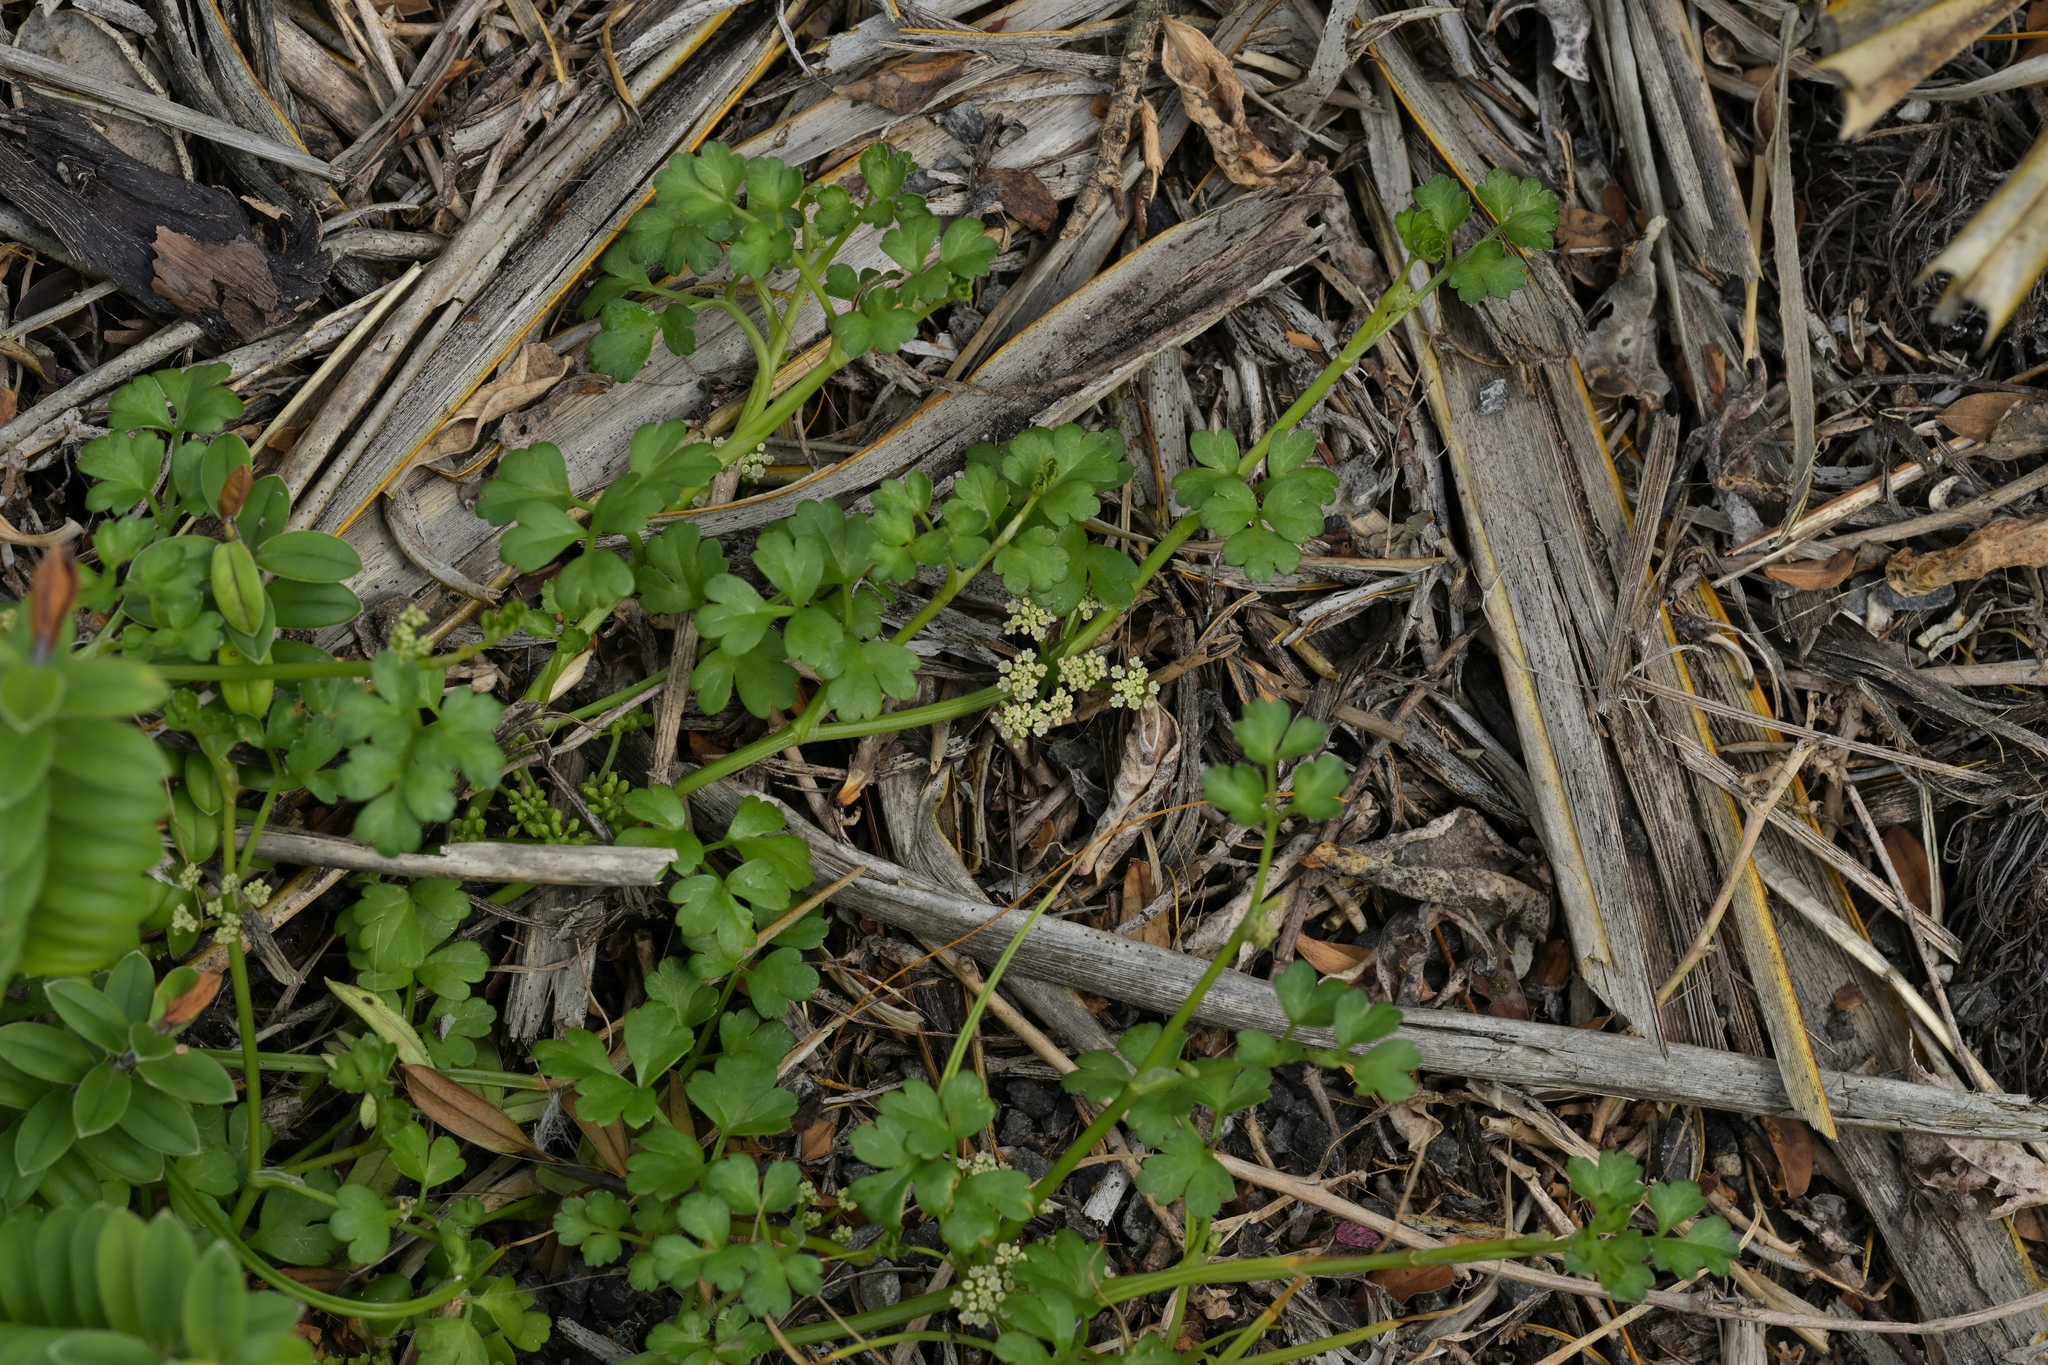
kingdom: Plantae
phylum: Tracheophyta
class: Magnoliopsida
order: Apiales
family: Apiaceae
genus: Apium
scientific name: Apium prostratum
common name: Prostrate marshwort
